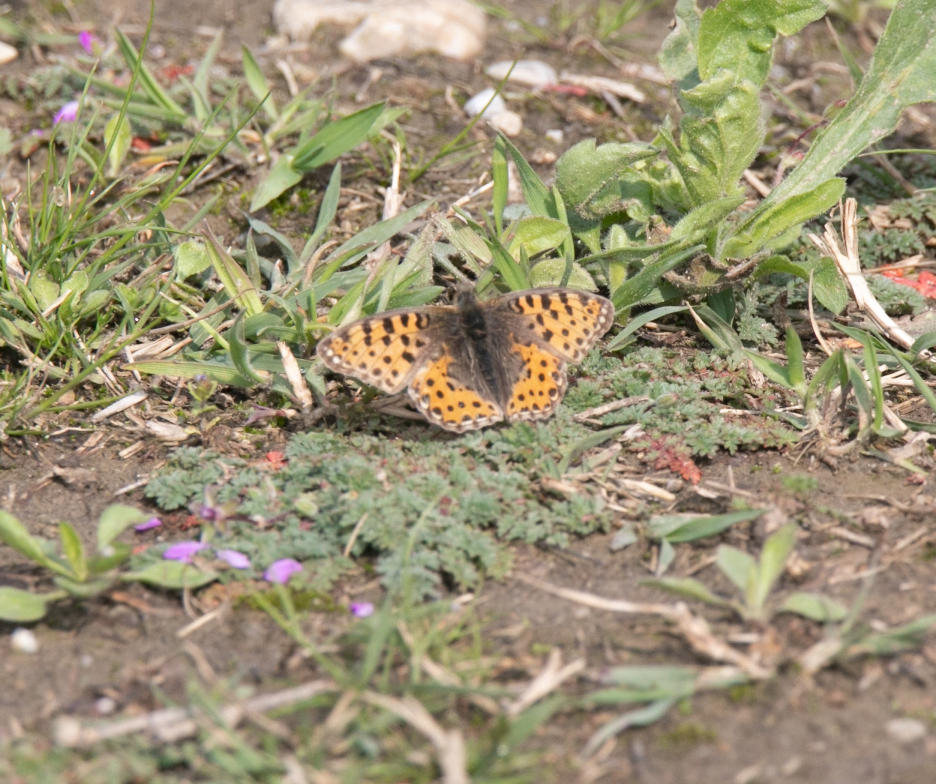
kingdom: Animalia
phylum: Arthropoda
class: Insecta
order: Lepidoptera
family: Nymphalidae
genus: Issoria
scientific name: Issoria lathonia
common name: Queen of spain fritillary
